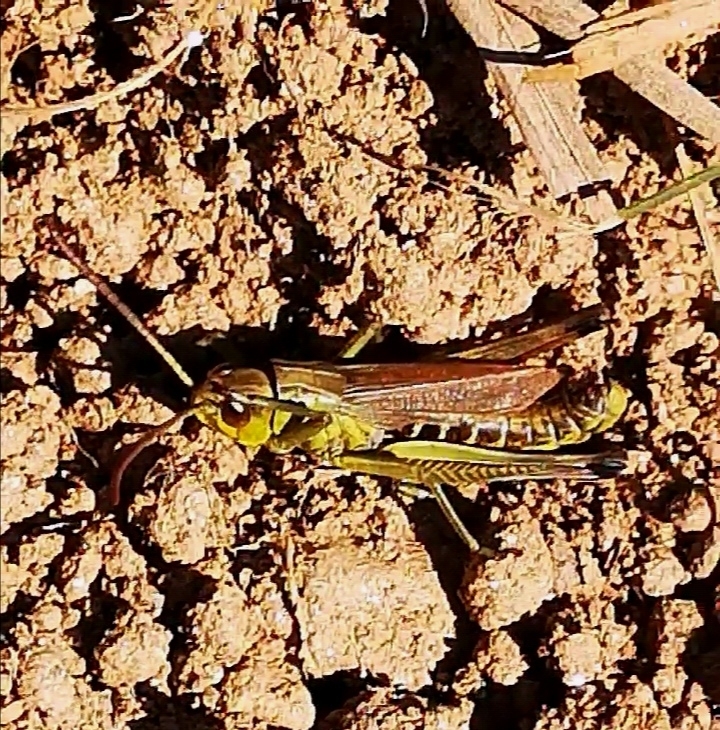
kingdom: Animalia
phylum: Arthropoda
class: Insecta
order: Orthoptera
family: Acrididae
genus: Pseudochorthippus
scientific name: Pseudochorthippus parallelus
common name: Meadow grasshopper
